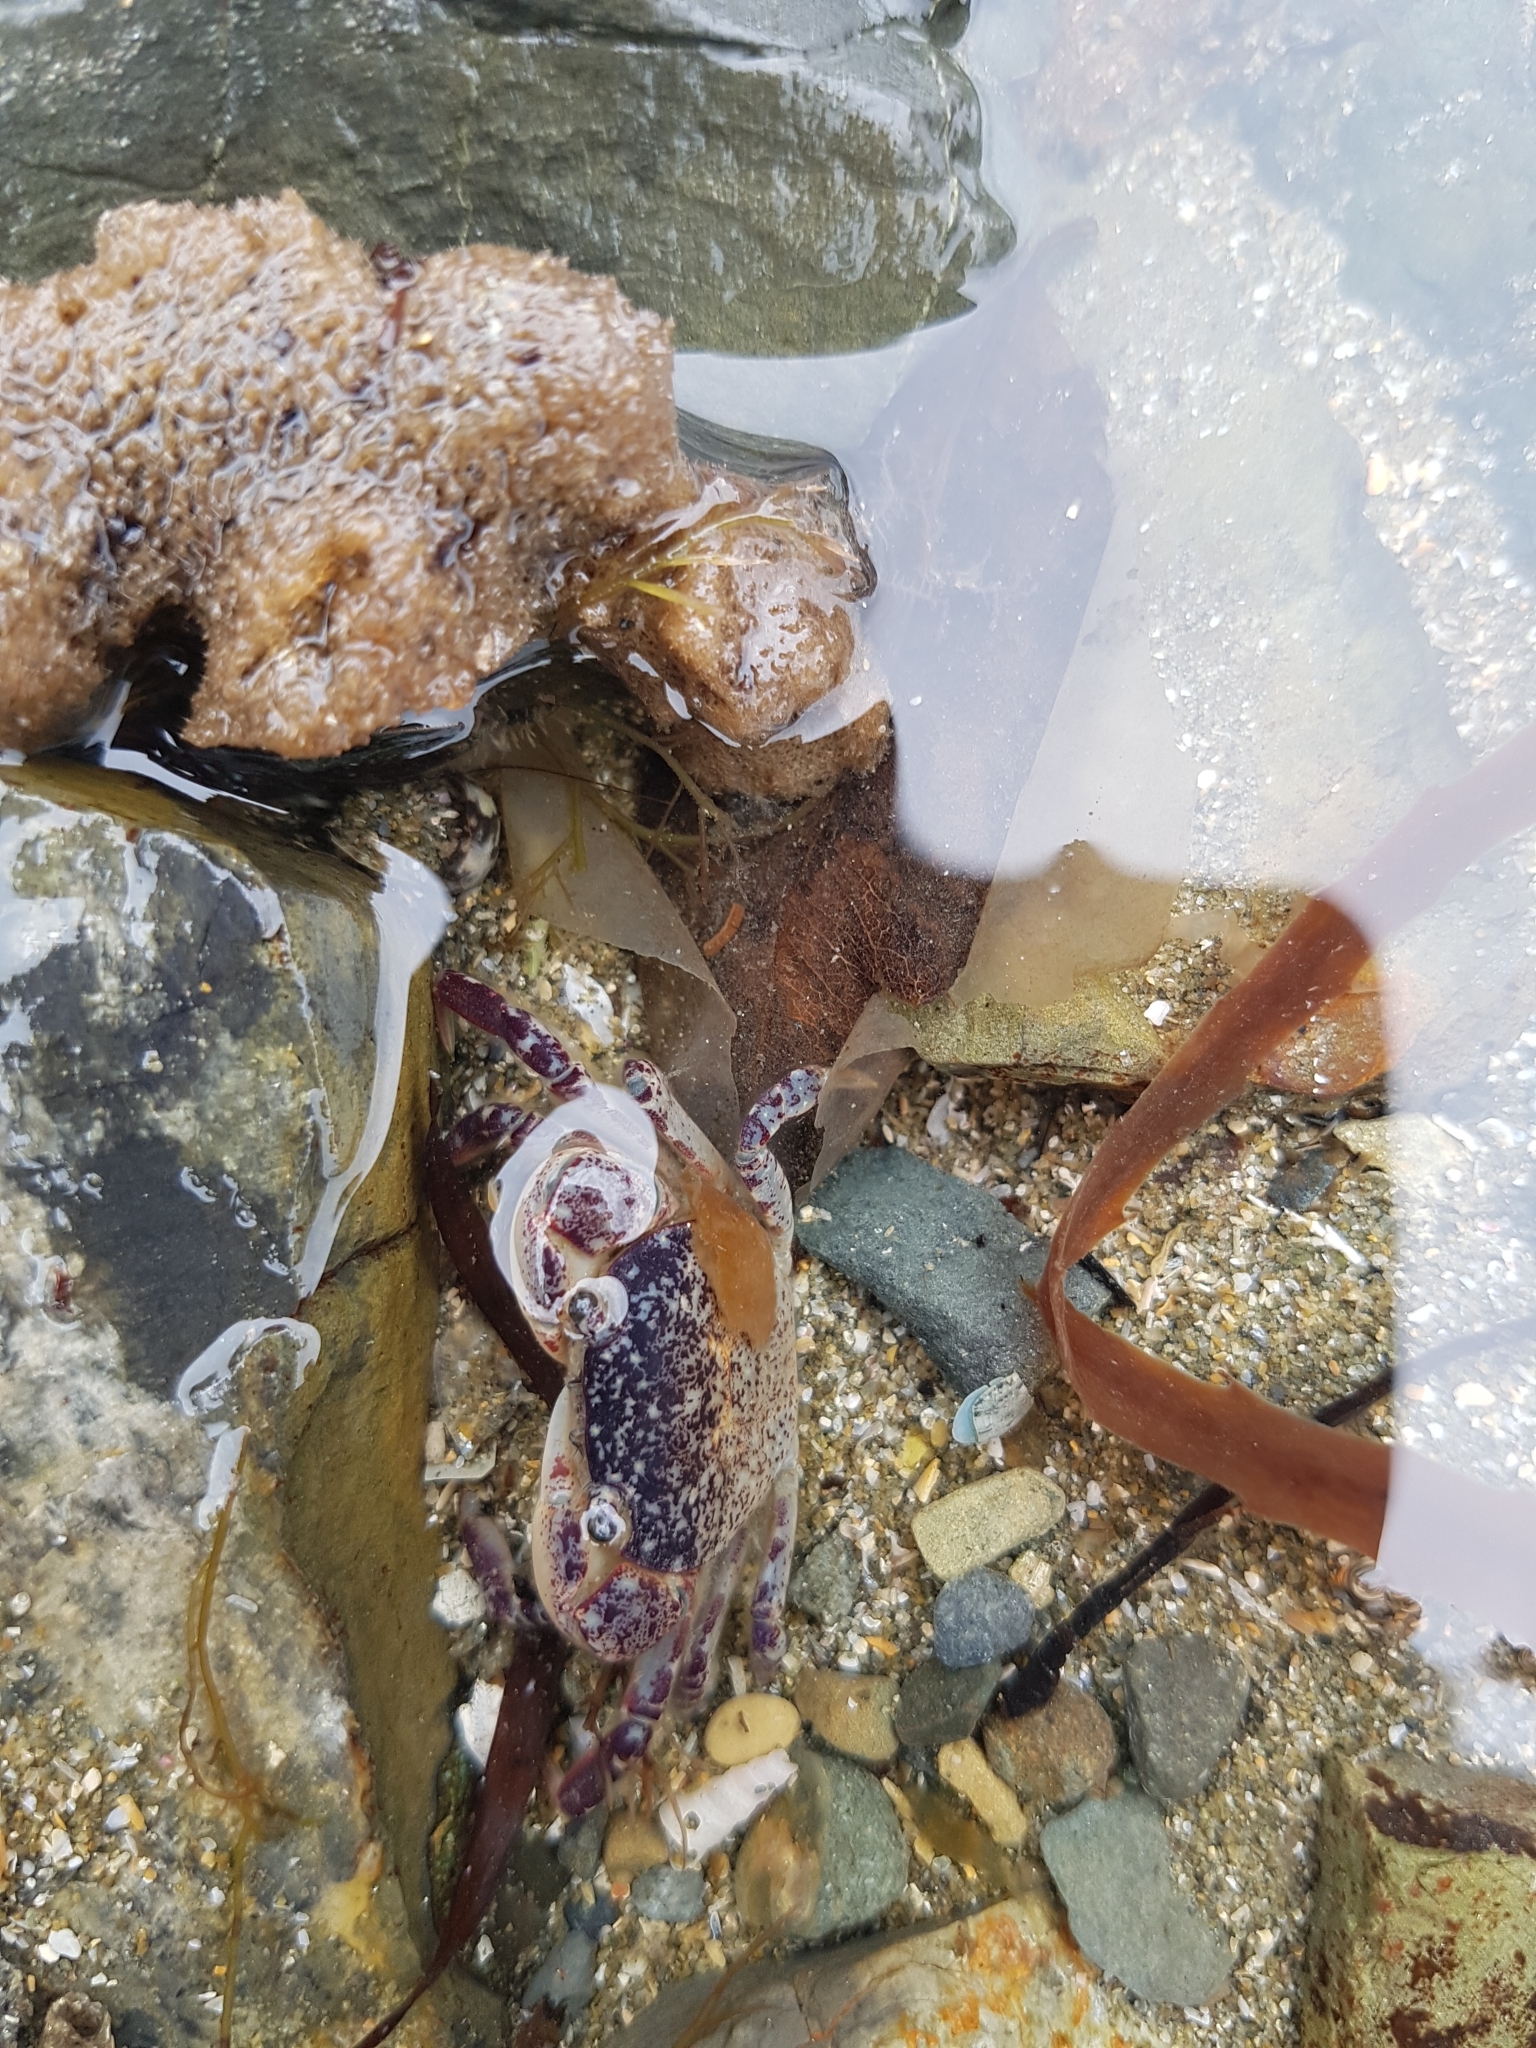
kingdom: Animalia
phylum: Arthropoda
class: Malacostraca
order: Decapoda
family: Varunidae
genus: Hemigrapsus
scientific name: Hemigrapsus sexdentatus
